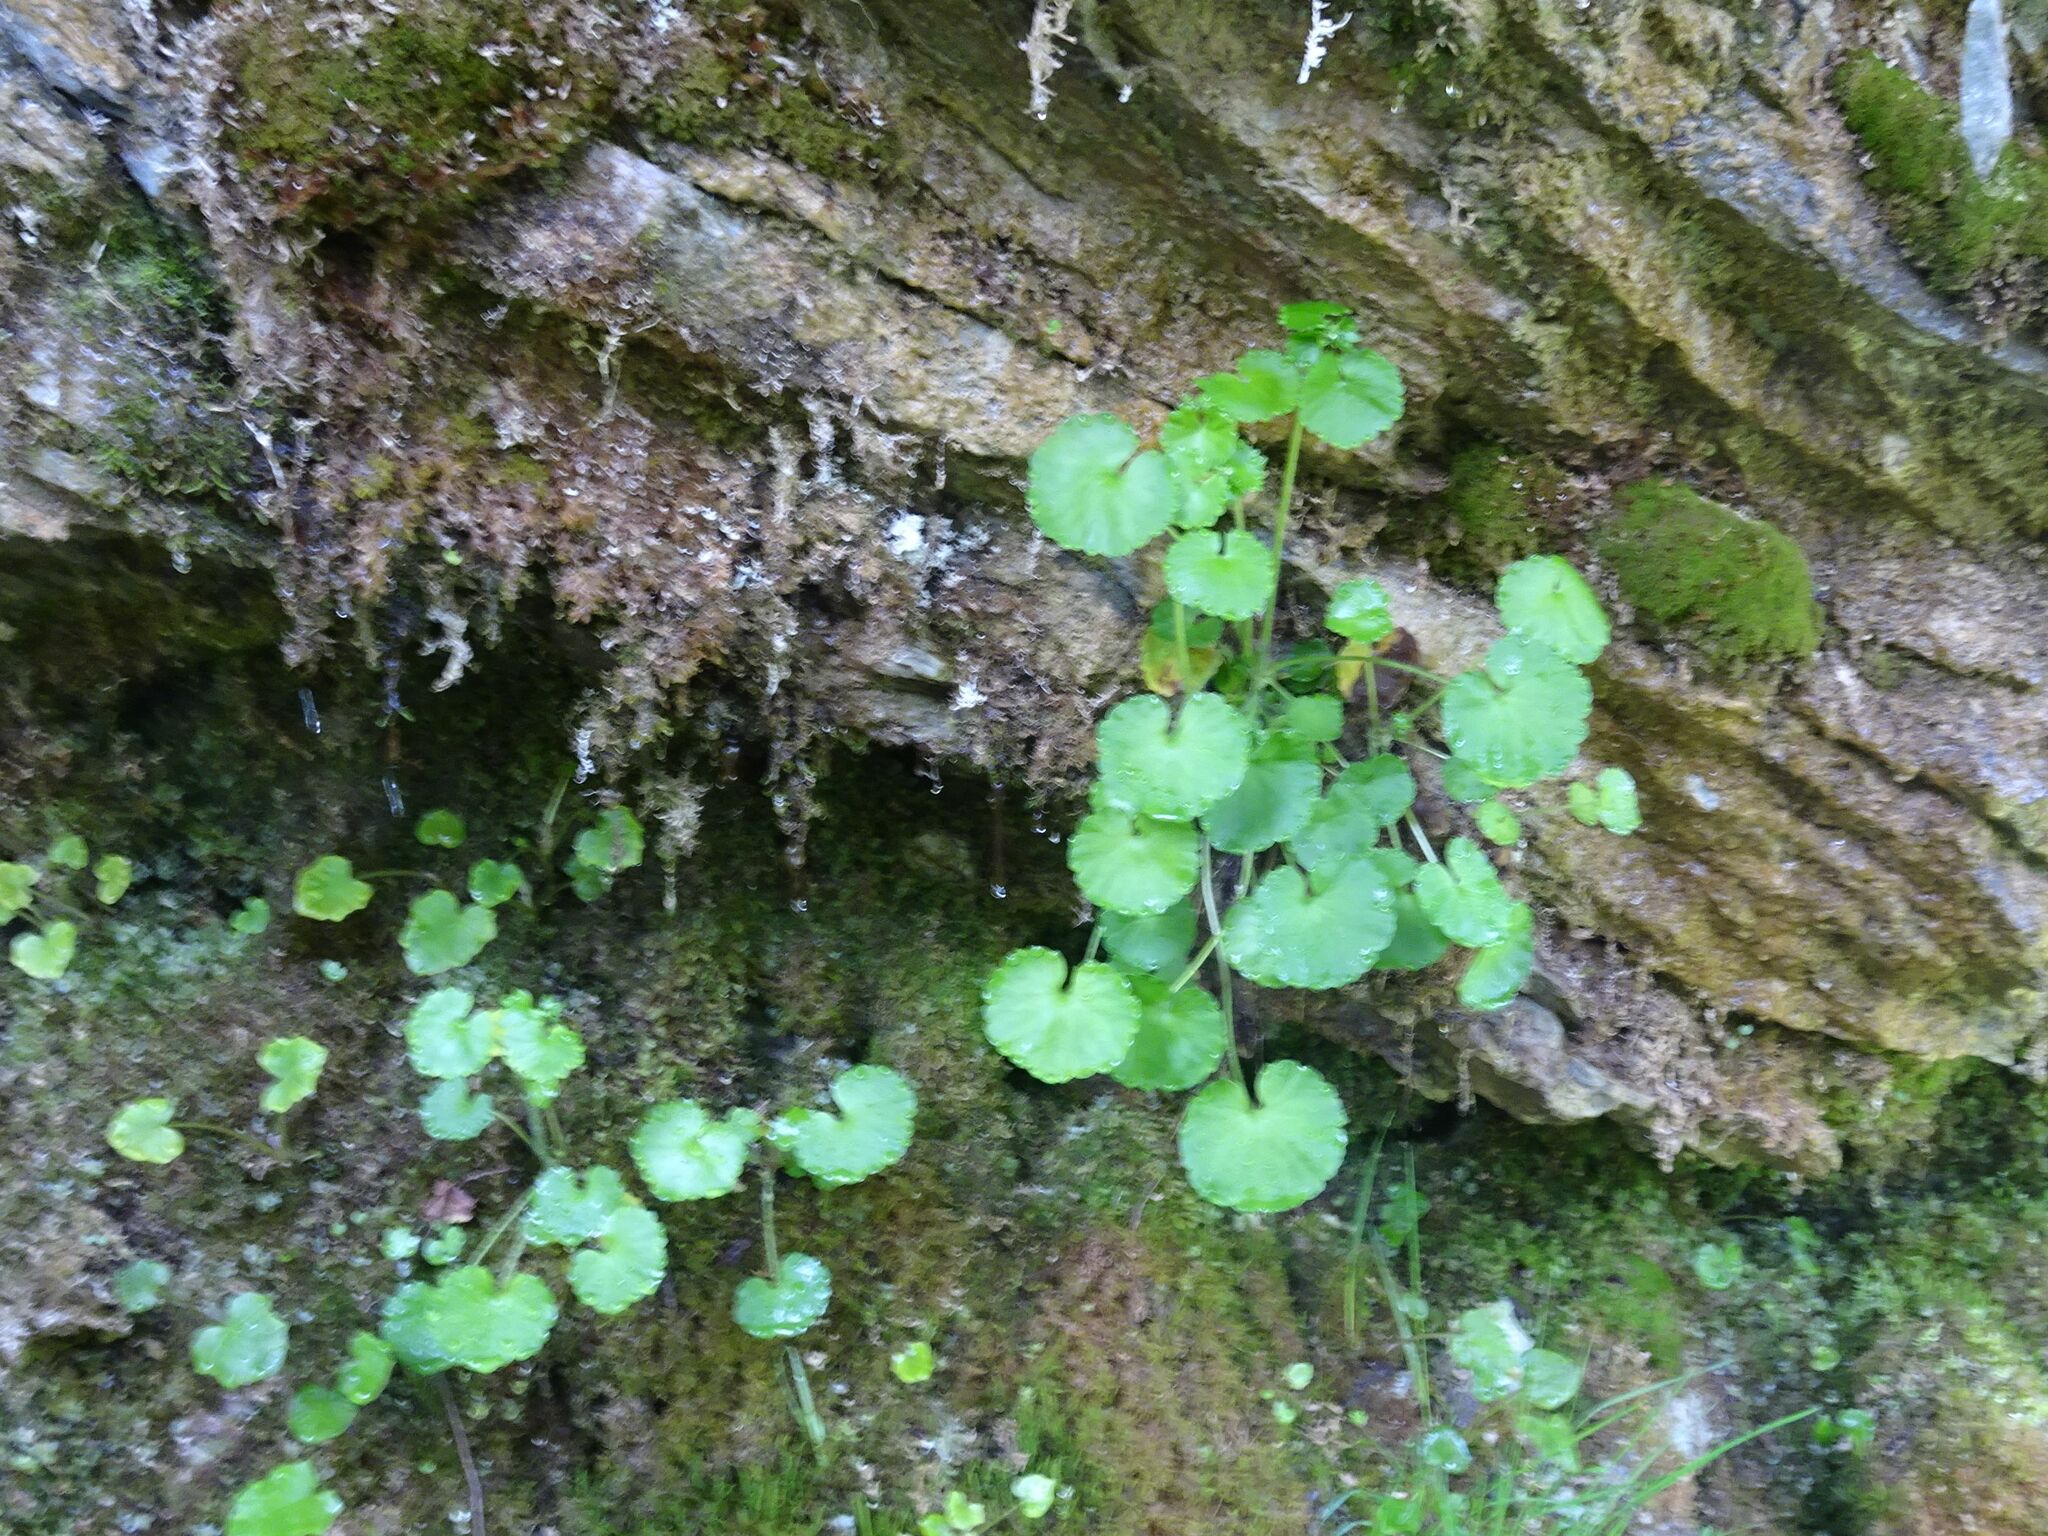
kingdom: Plantae
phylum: Tracheophyta
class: Magnoliopsida
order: Saxifragales
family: Saxifragaceae
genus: Saxifraga
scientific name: Saxifraga rotundifolia
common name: Round-leaved saxifrage
